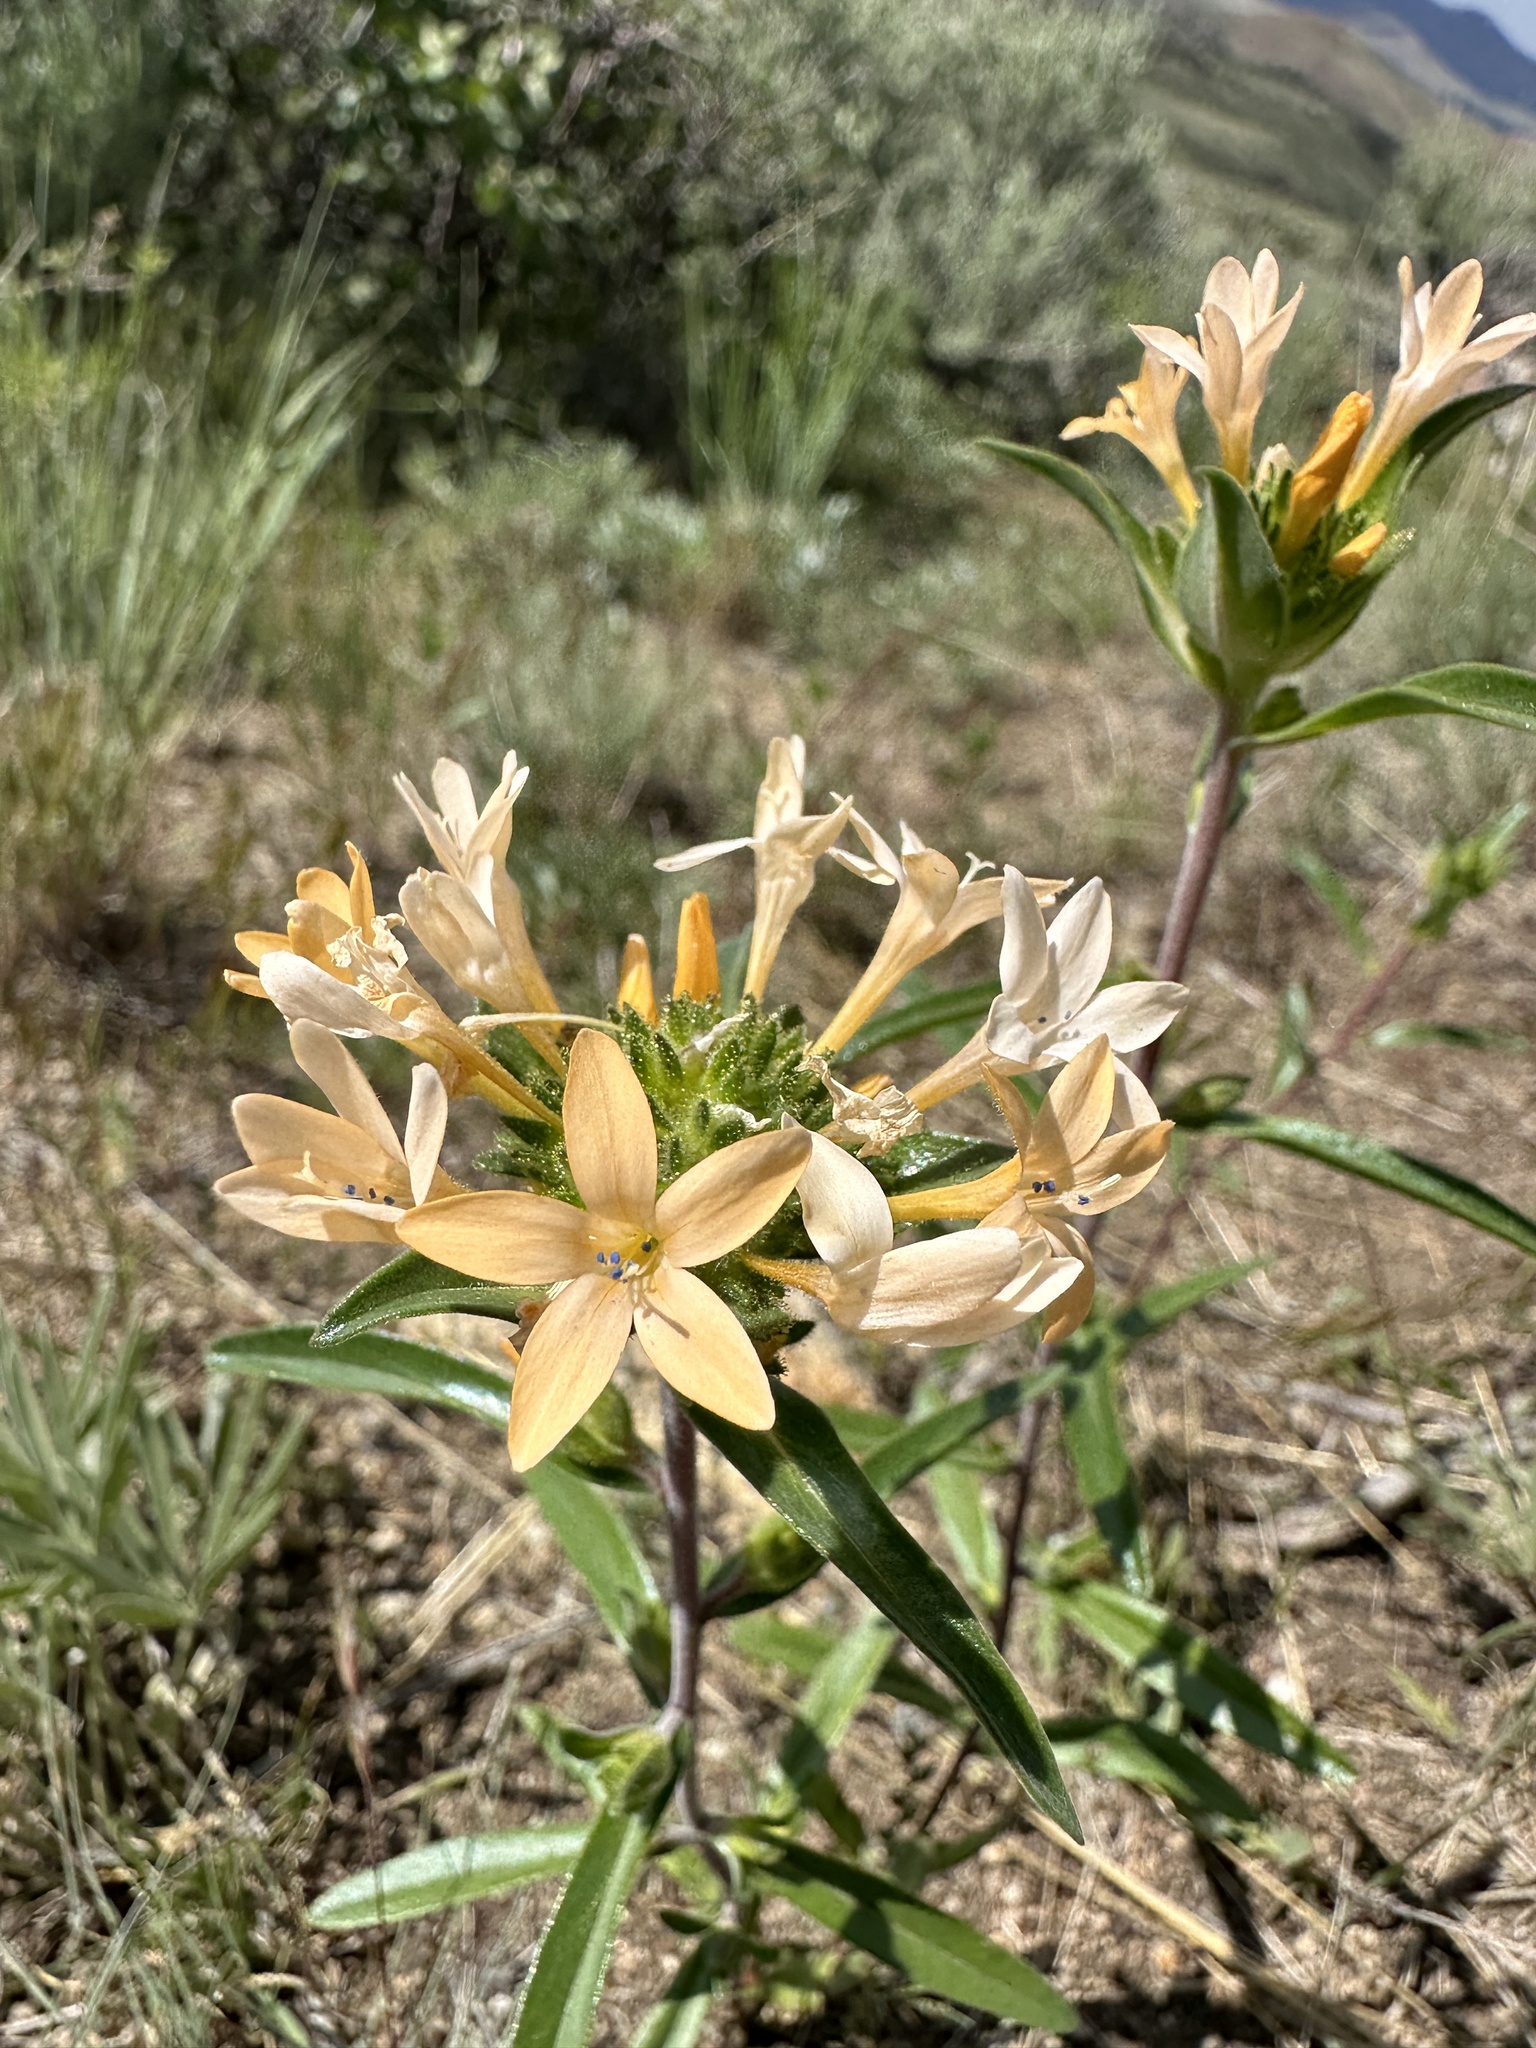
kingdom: Plantae
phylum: Tracheophyta
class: Magnoliopsida
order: Ericales
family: Polemoniaceae
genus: Collomia
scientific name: Collomia grandiflora
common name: California strawflower
